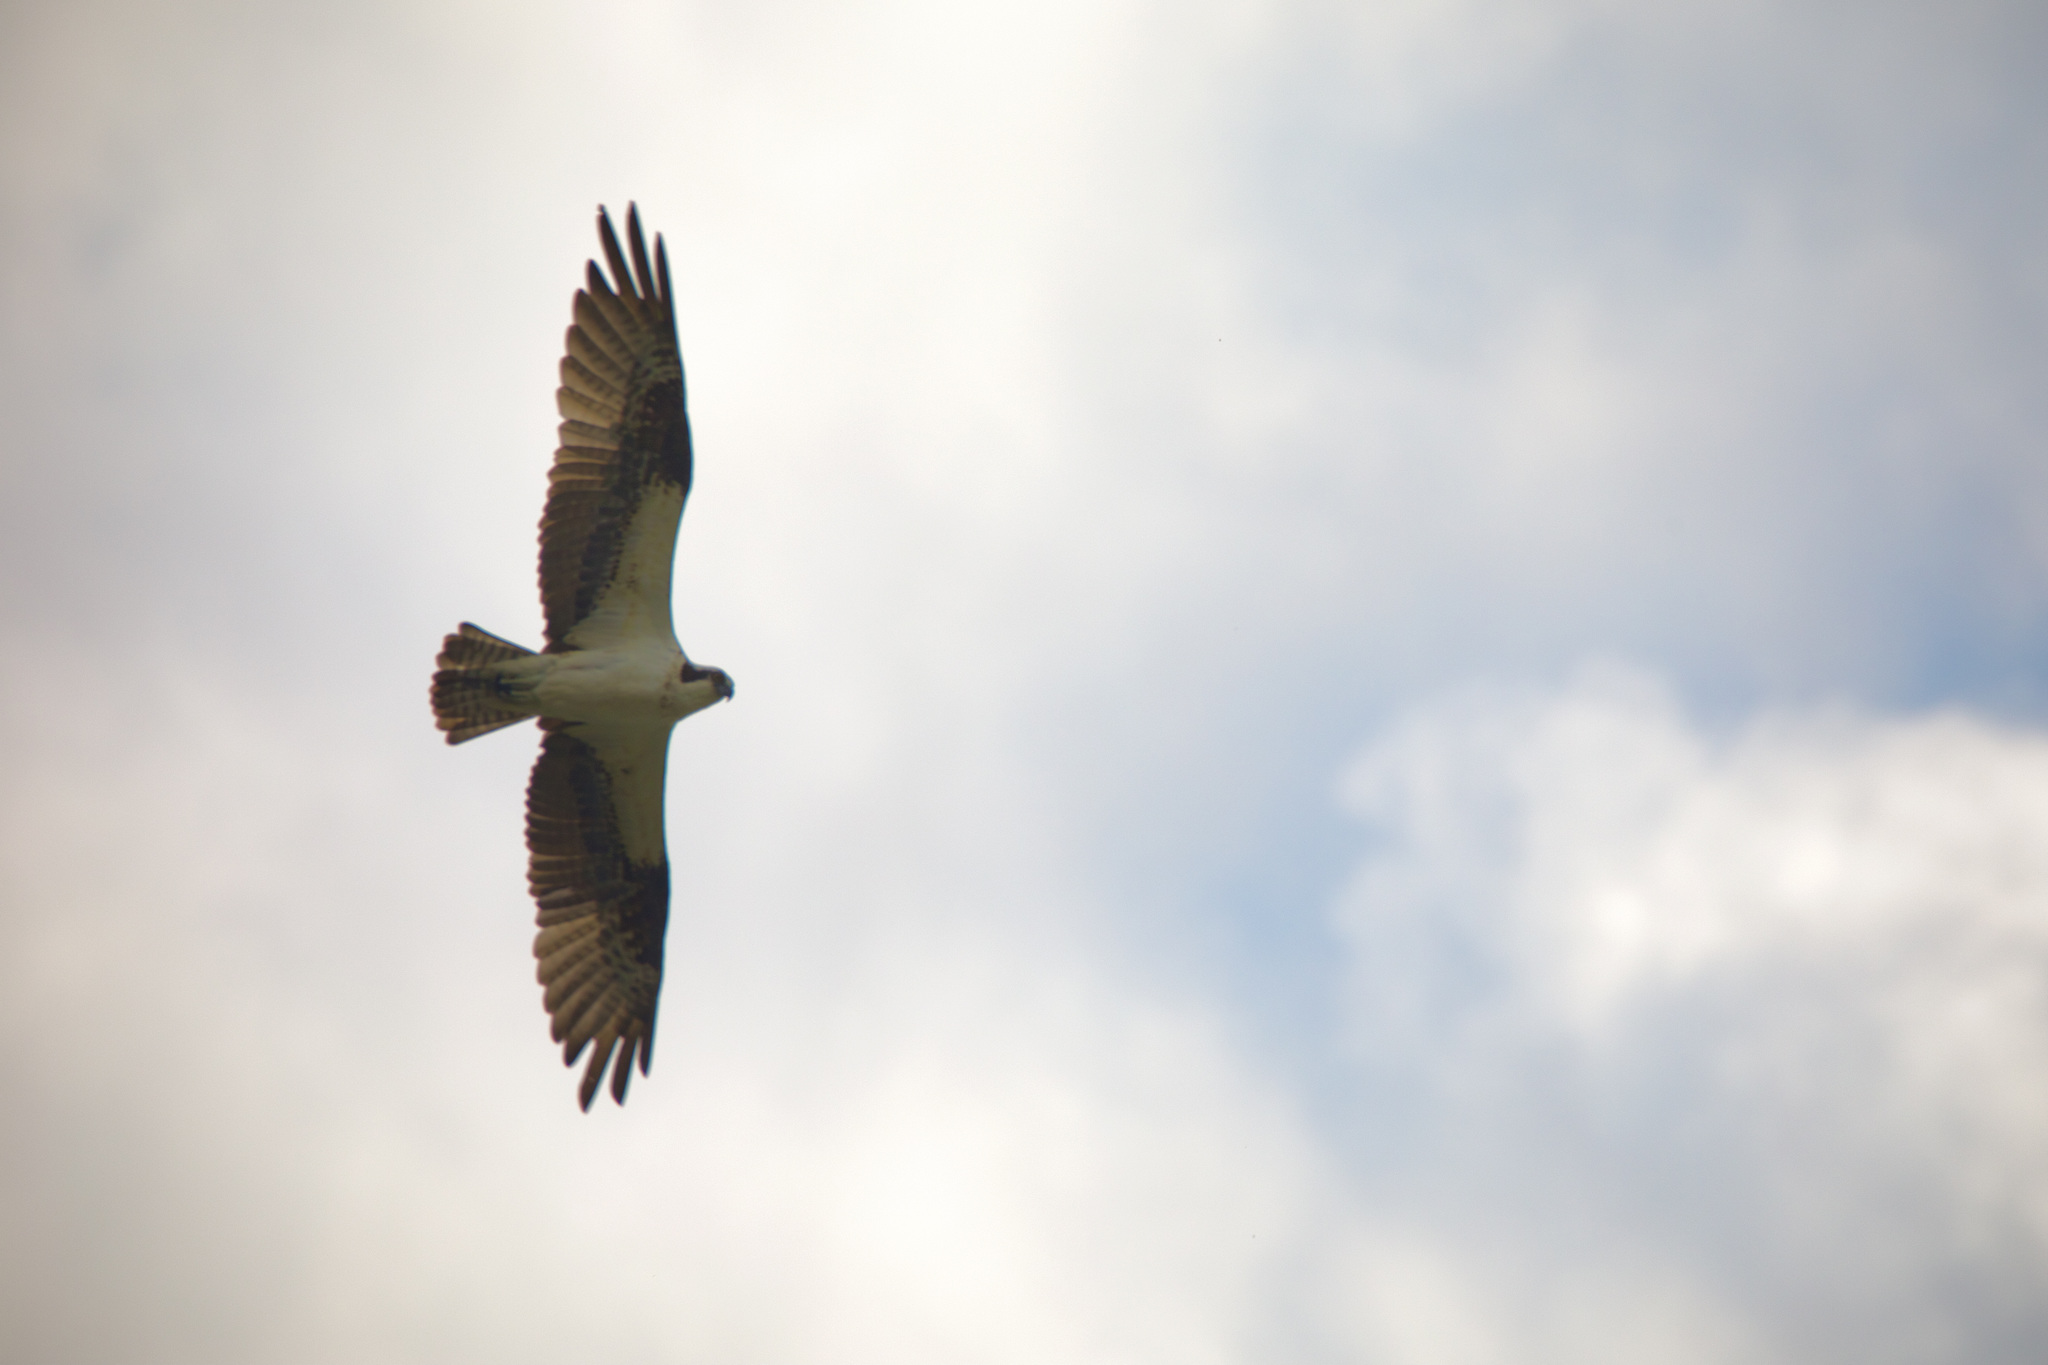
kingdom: Animalia
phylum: Chordata
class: Aves
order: Accipitriformes
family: Pandionidae
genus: Pandion
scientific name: Pandion haliaetus
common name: Osprey
